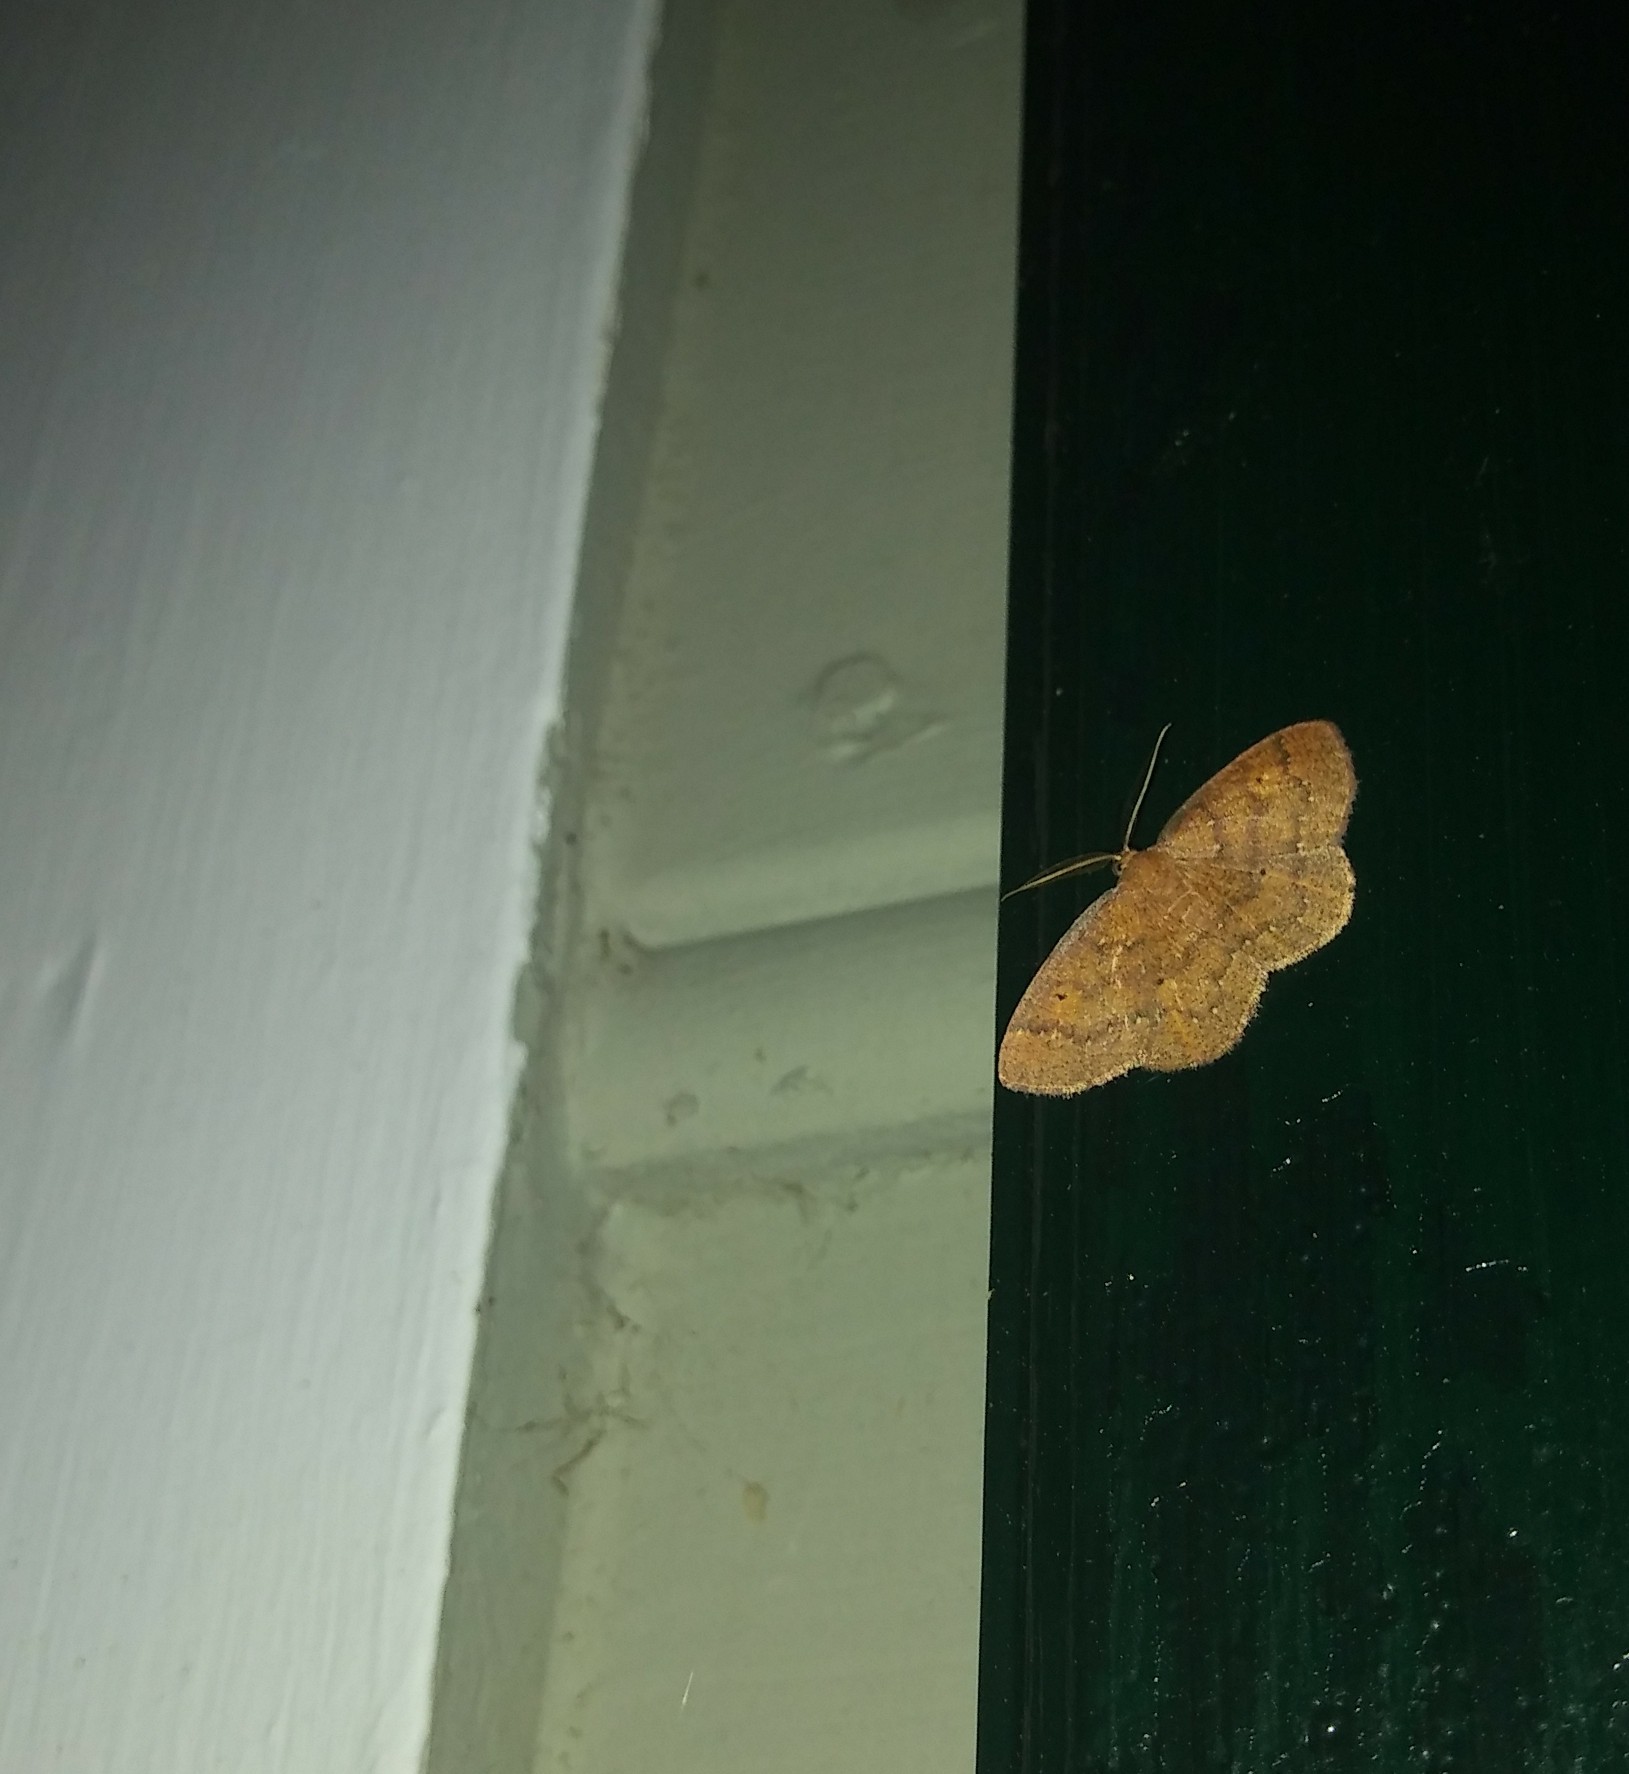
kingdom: Animalia
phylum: Arthropoda
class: Insecta
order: Lepidoptera
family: Geometridae
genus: Ilexia
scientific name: Ilexia intractata
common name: Black-dotted ruddy moth
